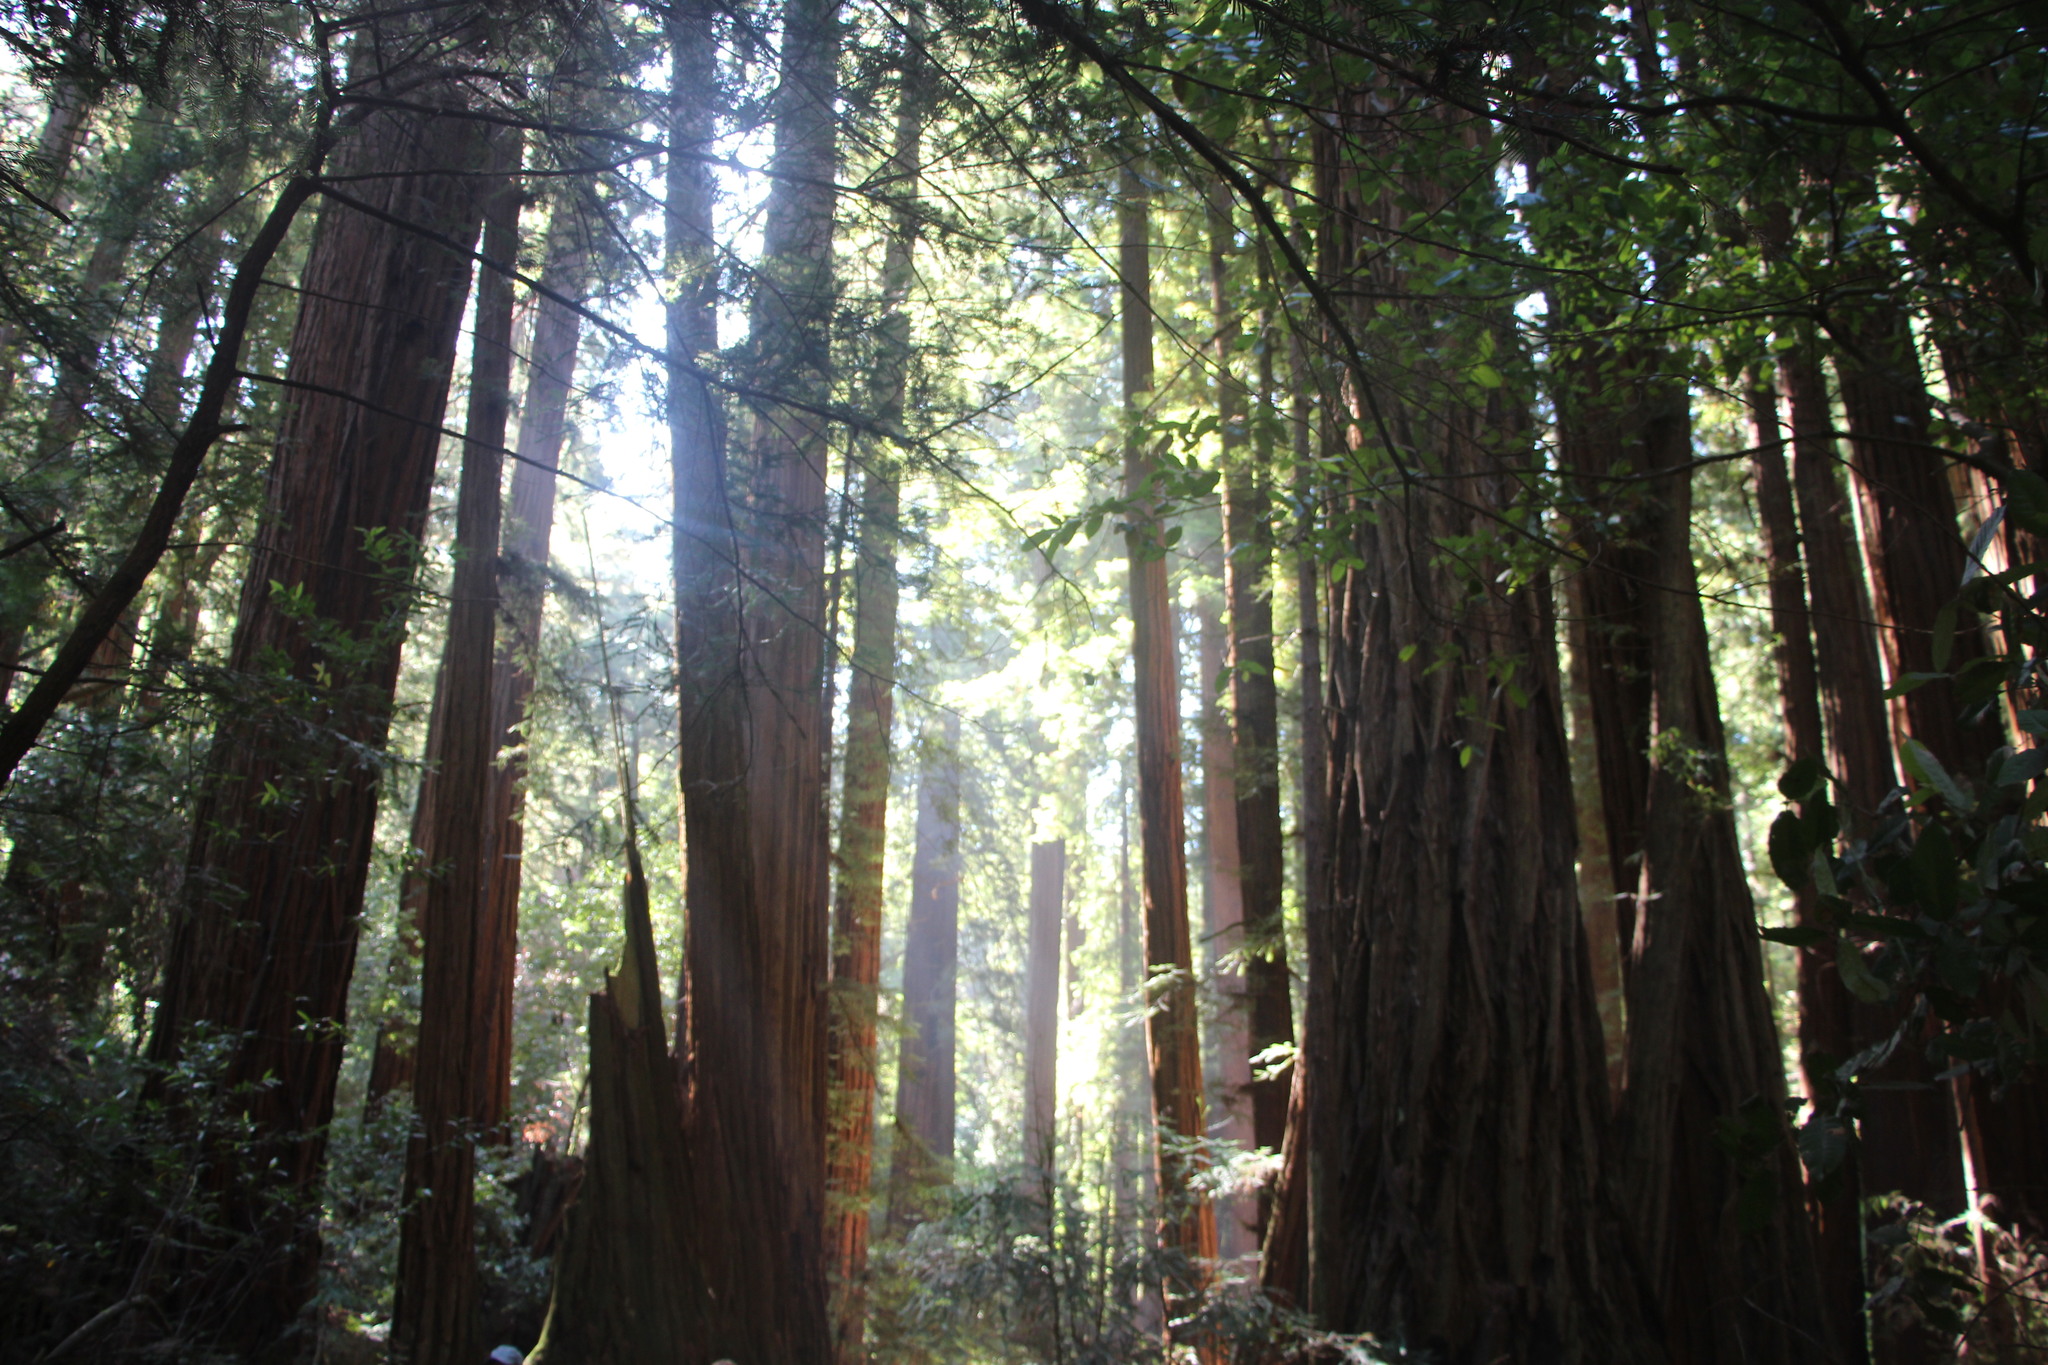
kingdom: Plantae
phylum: Tracheophyta
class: Pinopsida
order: Pinales
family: Cupressaceae
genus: Sequoia
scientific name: Sequoia sempervirens
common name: Coast redwood
